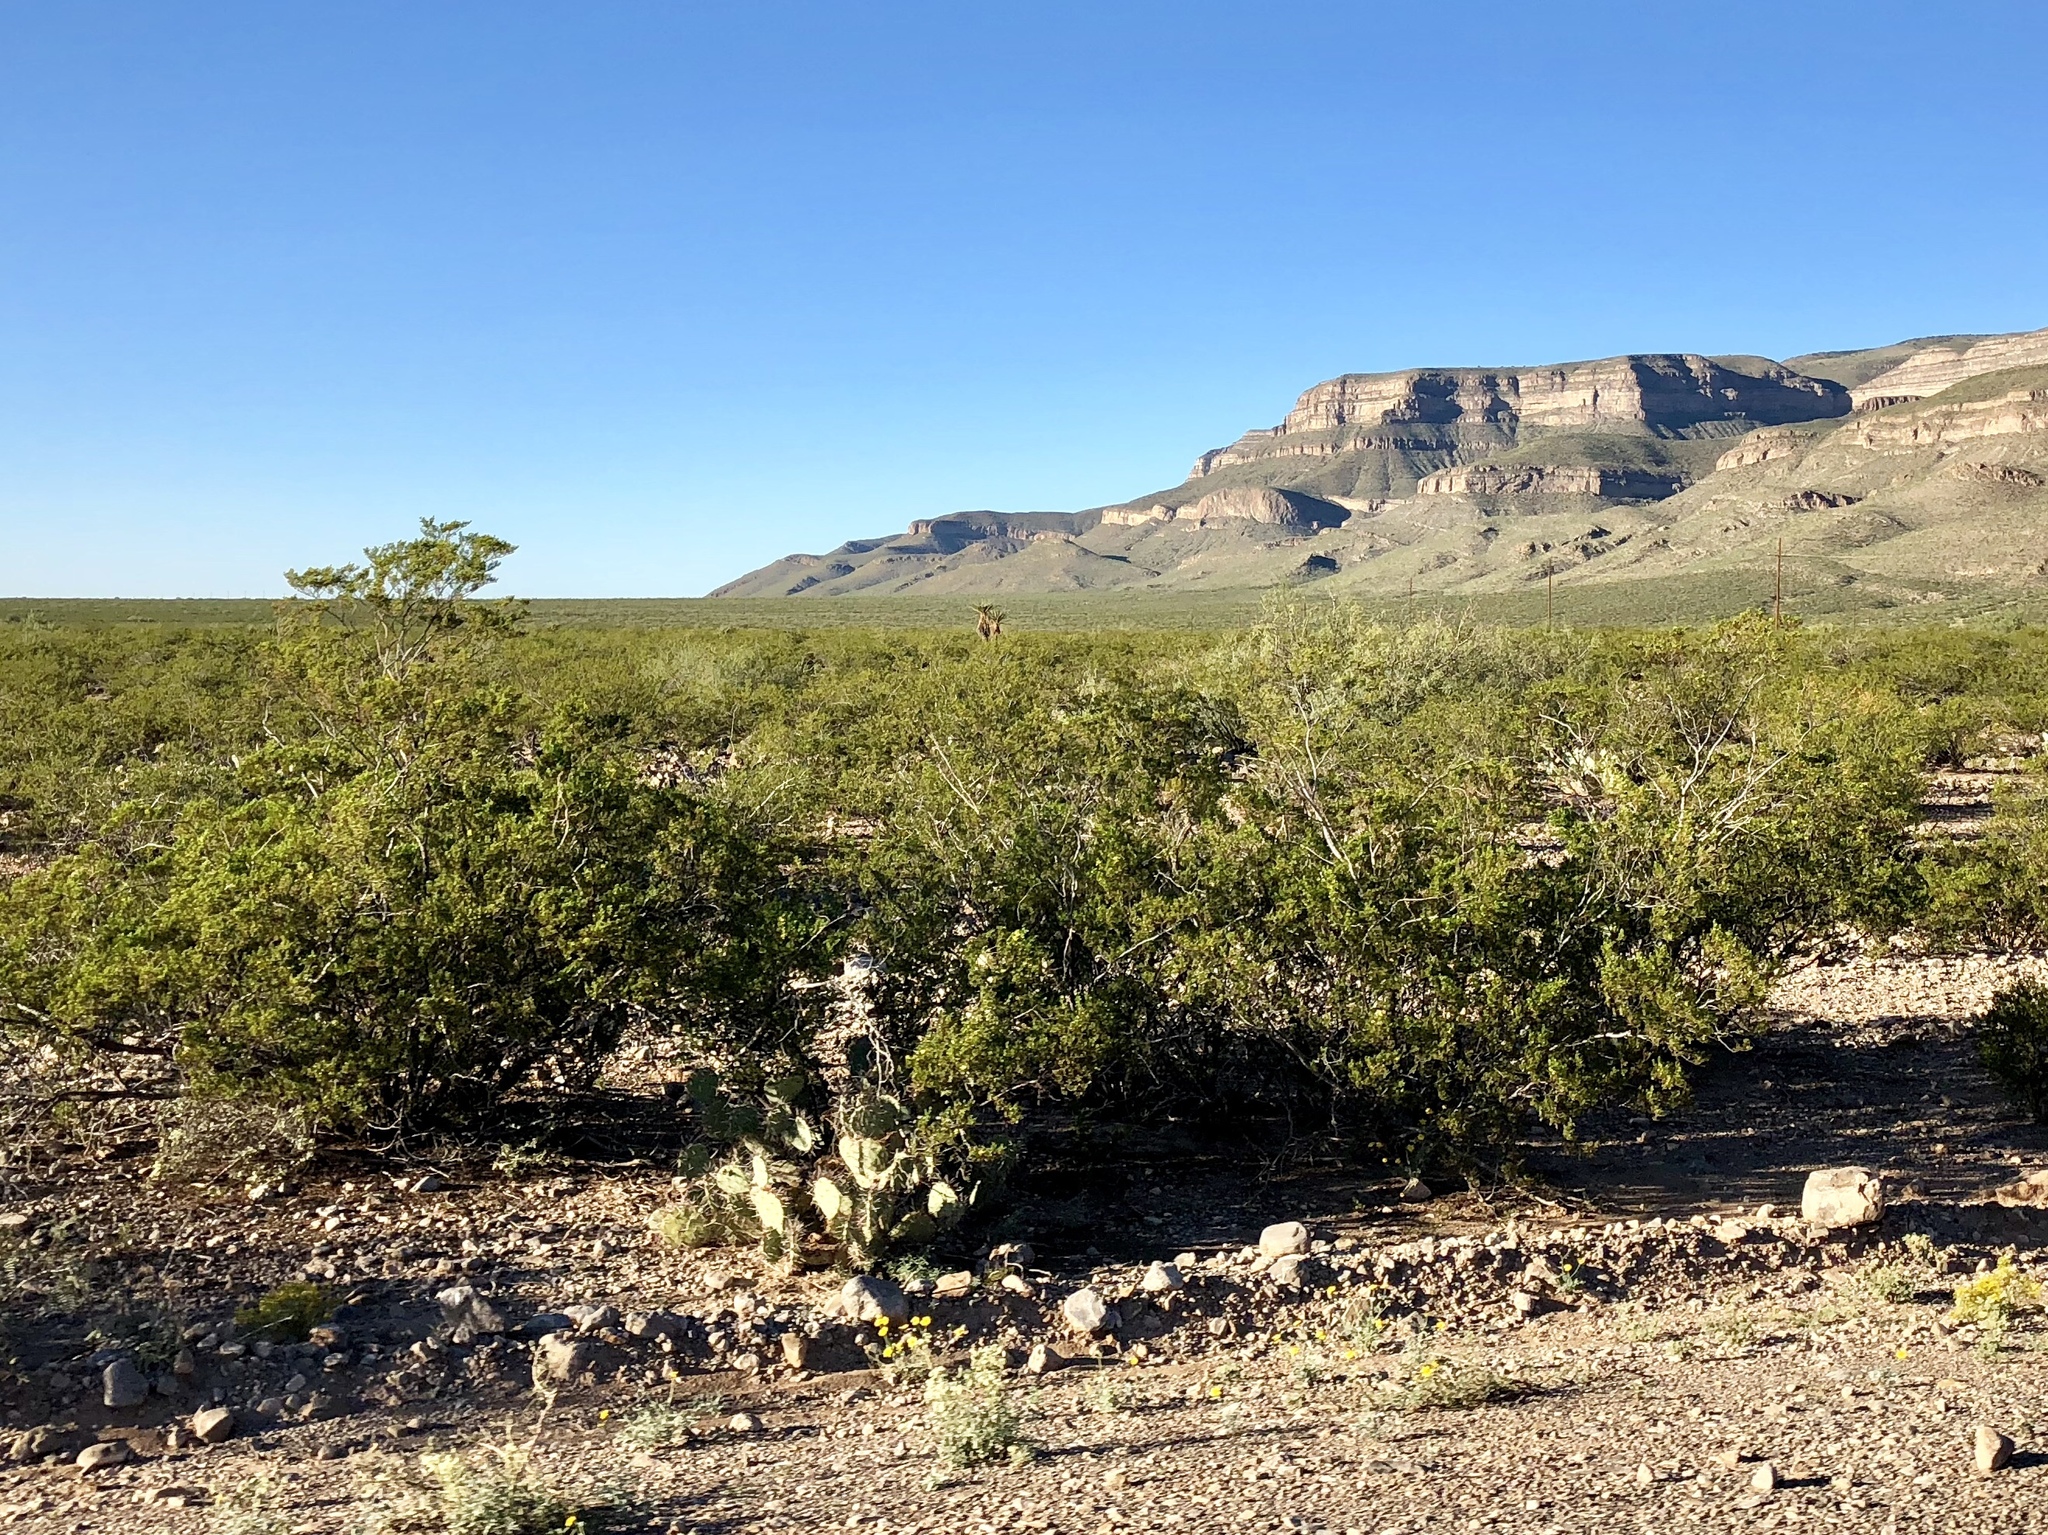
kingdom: Plantae
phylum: Tracheophyta
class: Magnoliopsida
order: Zygophyllales
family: Zygophyllaceae
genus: Larrea
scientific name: Larrea tridentata
